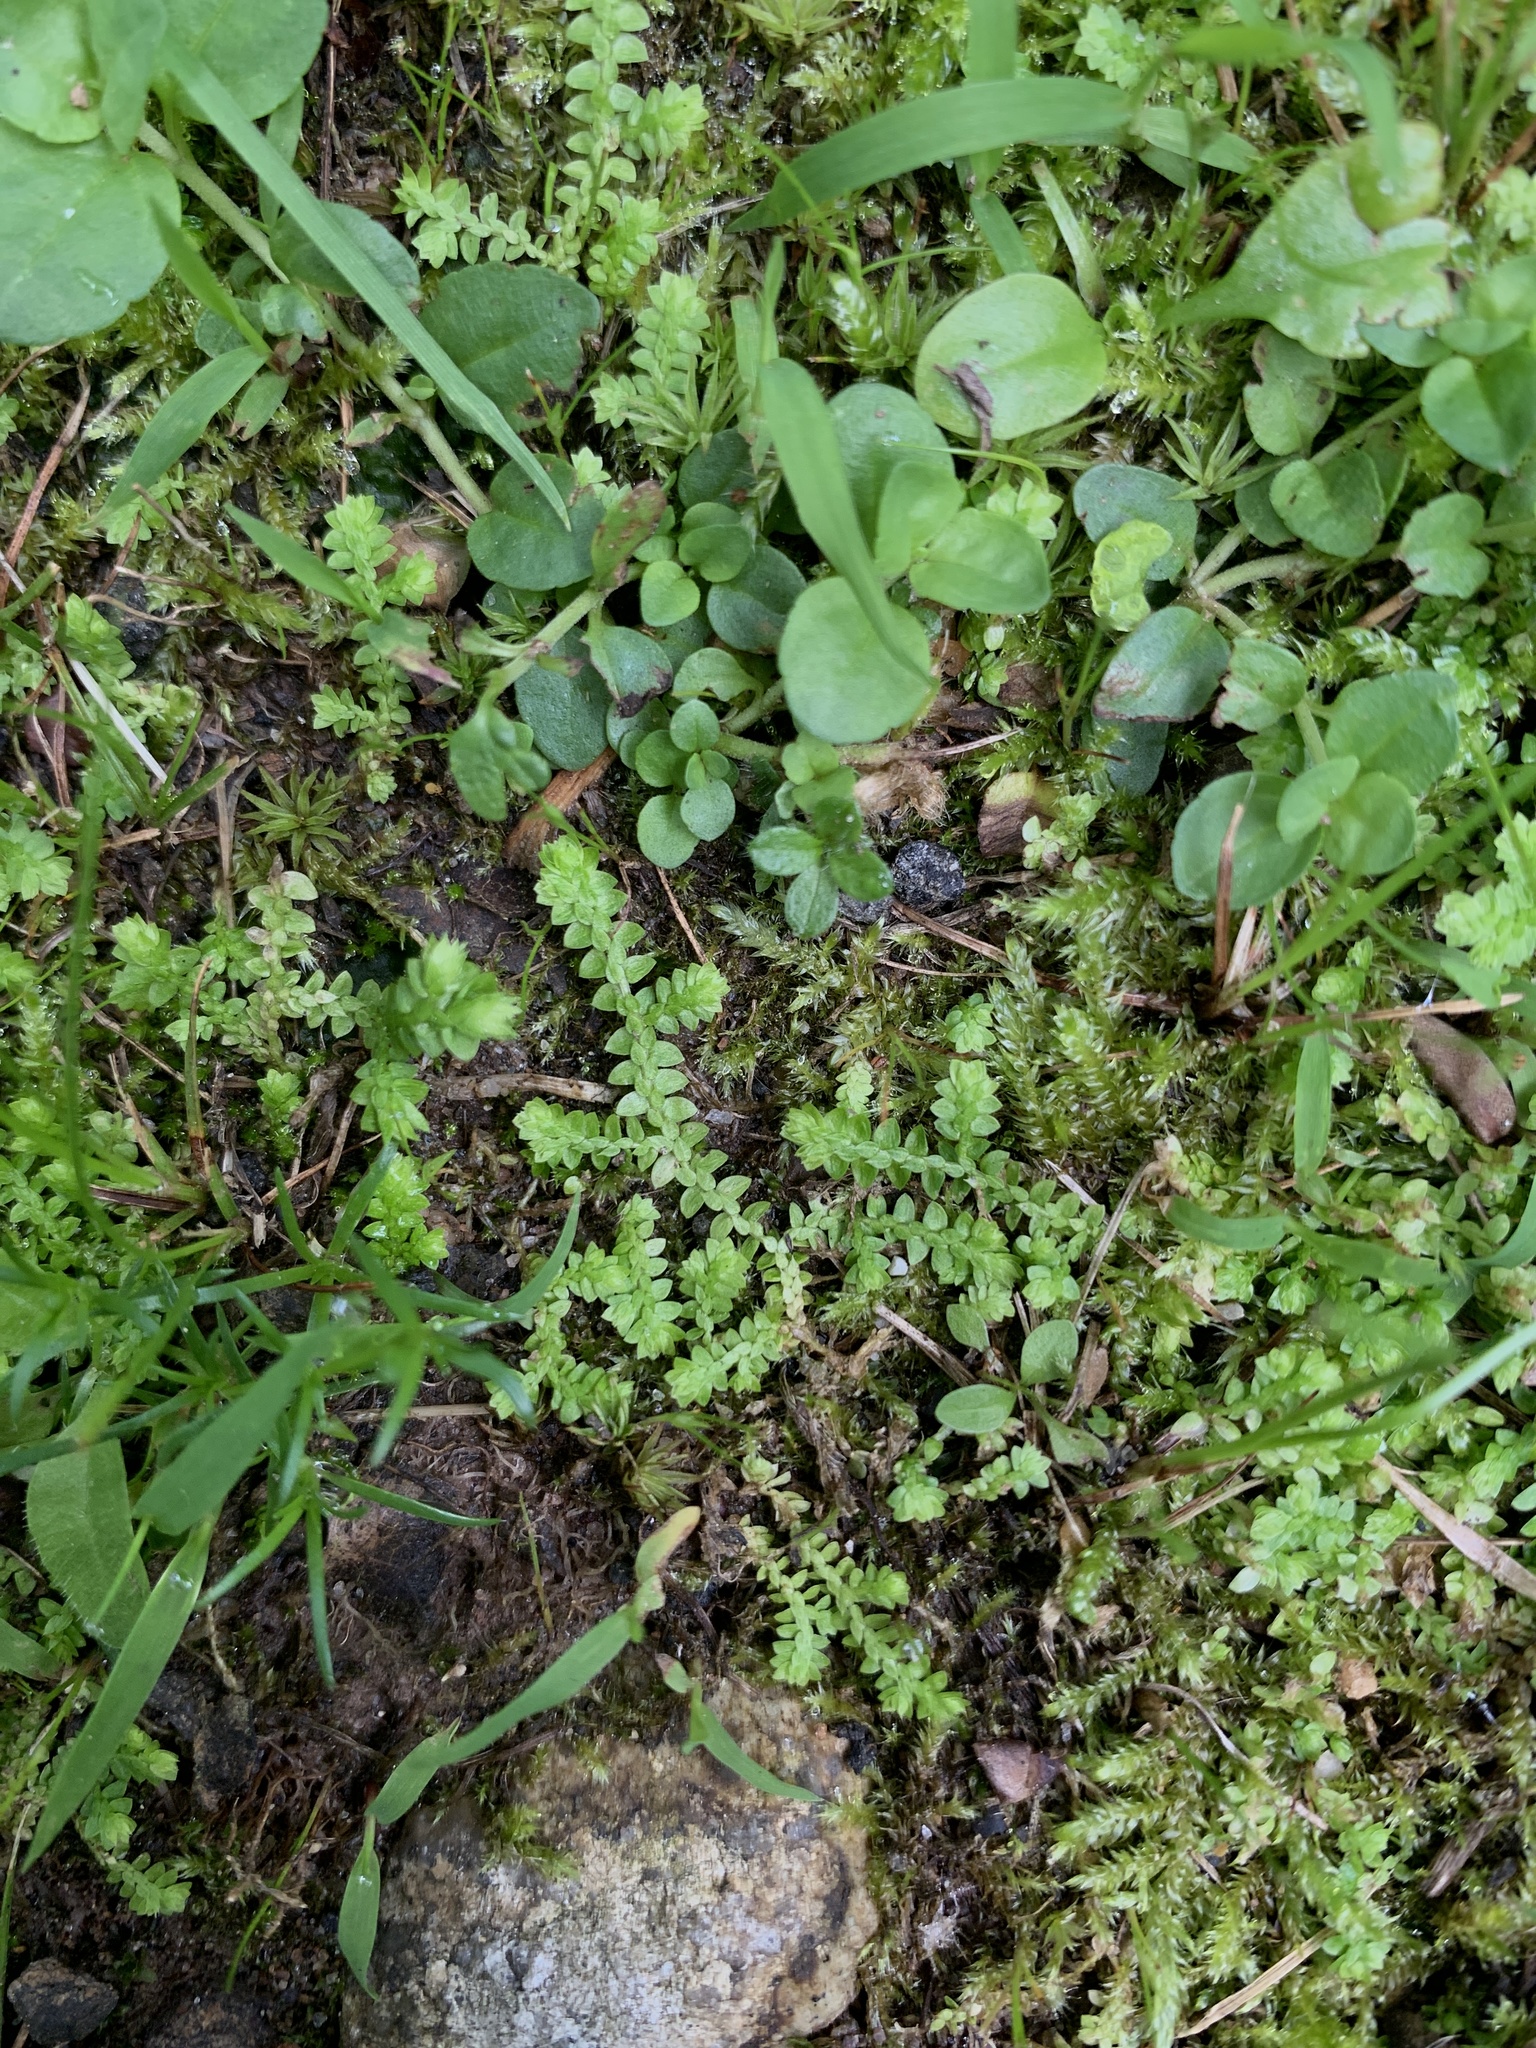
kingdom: Plantae
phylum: Tracheophyta
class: Lycopodiopsida
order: Selaginellales
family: Selaginellaceae
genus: Selaginella
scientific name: Selaginella apoda
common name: Creeping spikemoss
